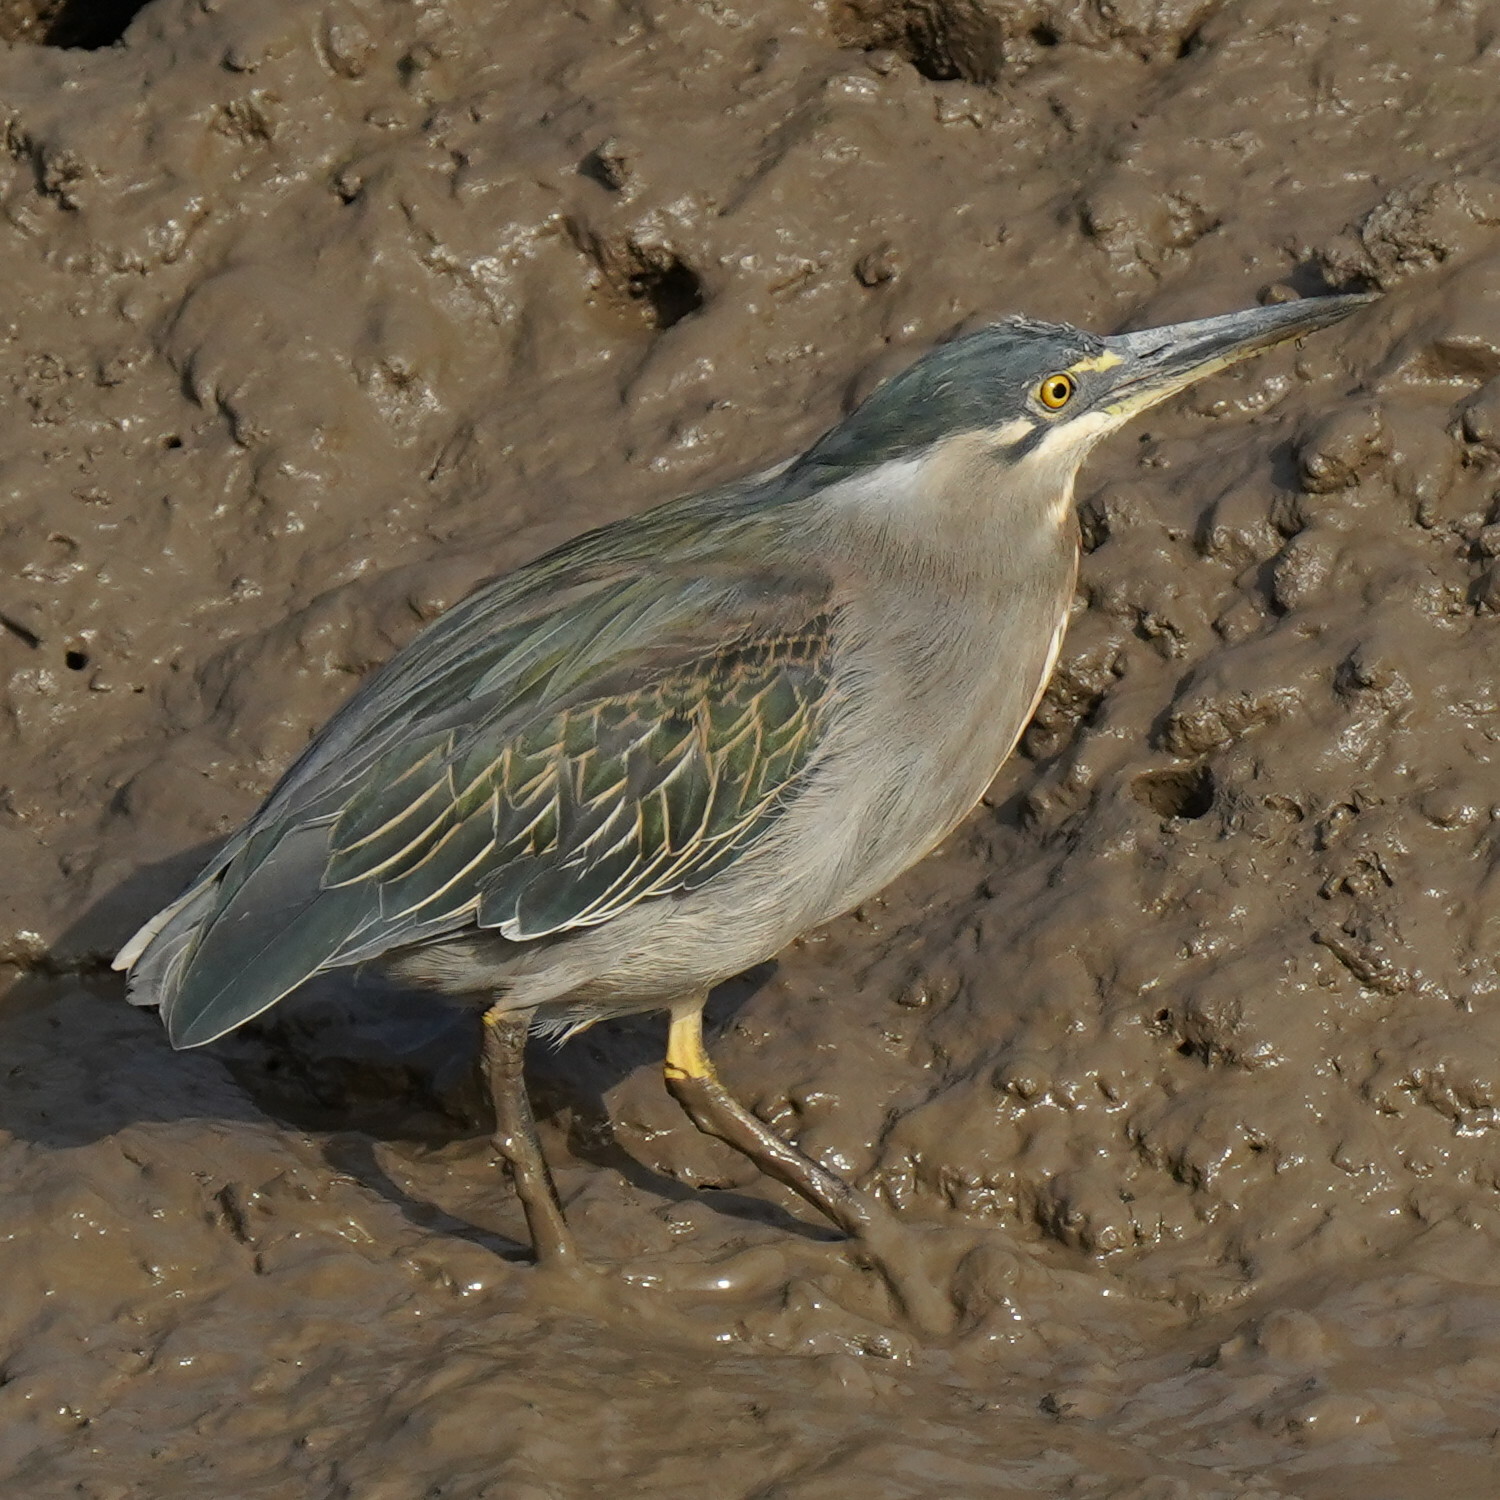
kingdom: Animalia
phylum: Chordata
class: Aves
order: Pelecaniformes
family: Ardeidae
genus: Butorides
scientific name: Butorides striata
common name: Striated heron
